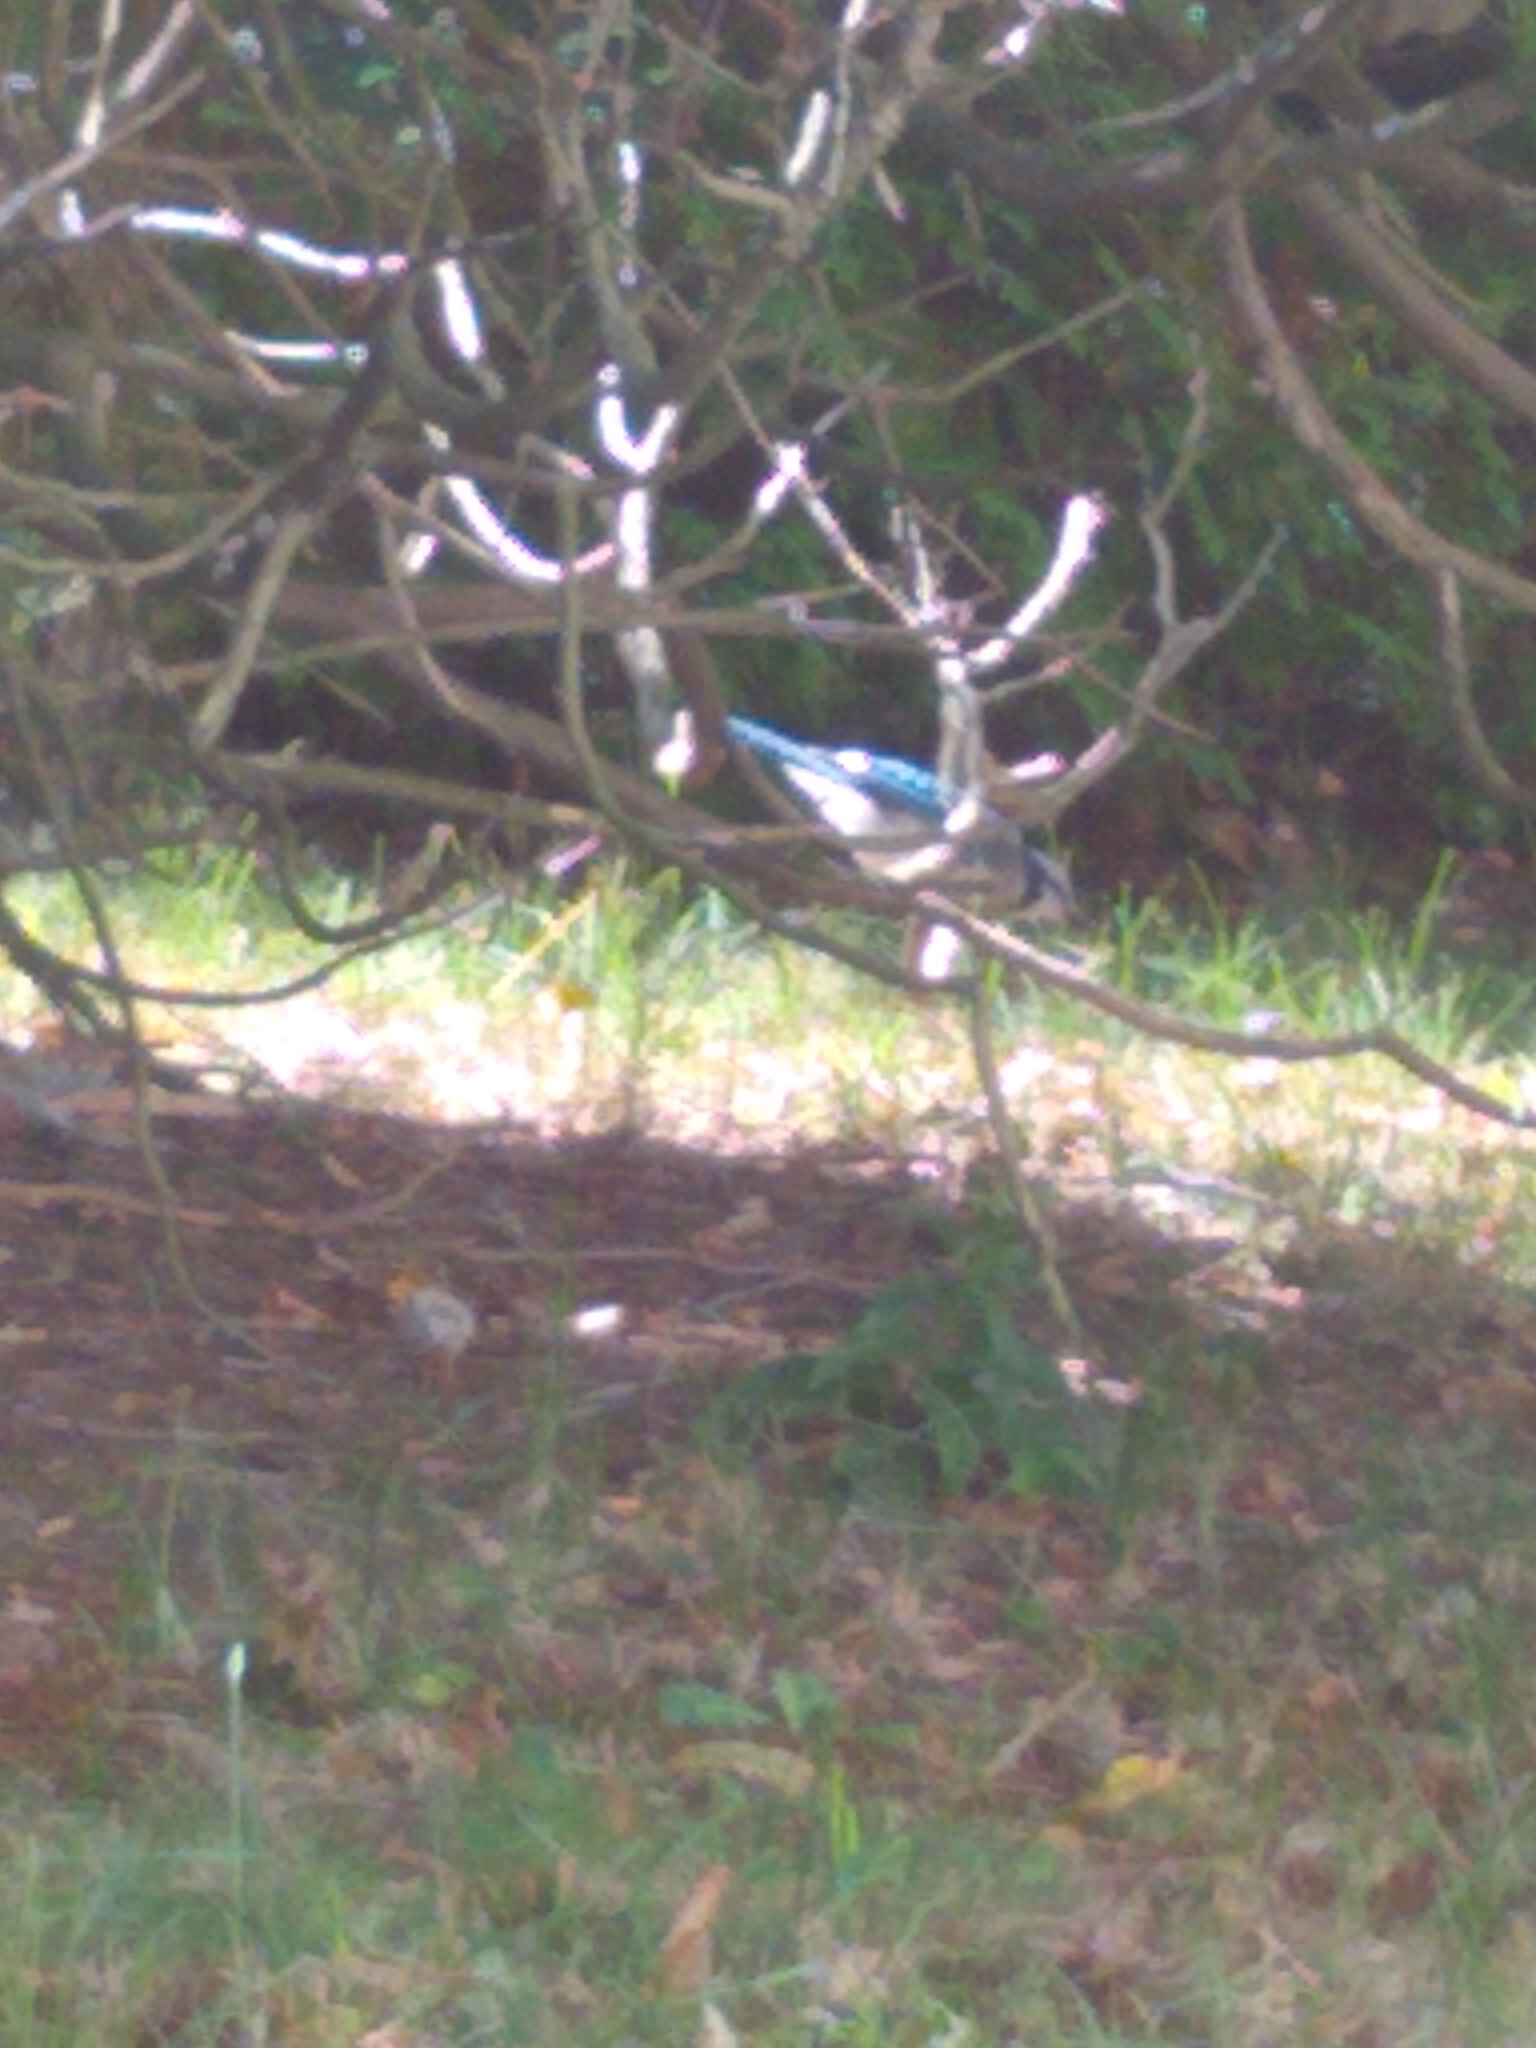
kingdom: Animalia
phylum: Chordata
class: Aves
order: Passeriformes
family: Corvidae
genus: Cyanocitta
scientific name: Cyanocitta cristata
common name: Blue jay
